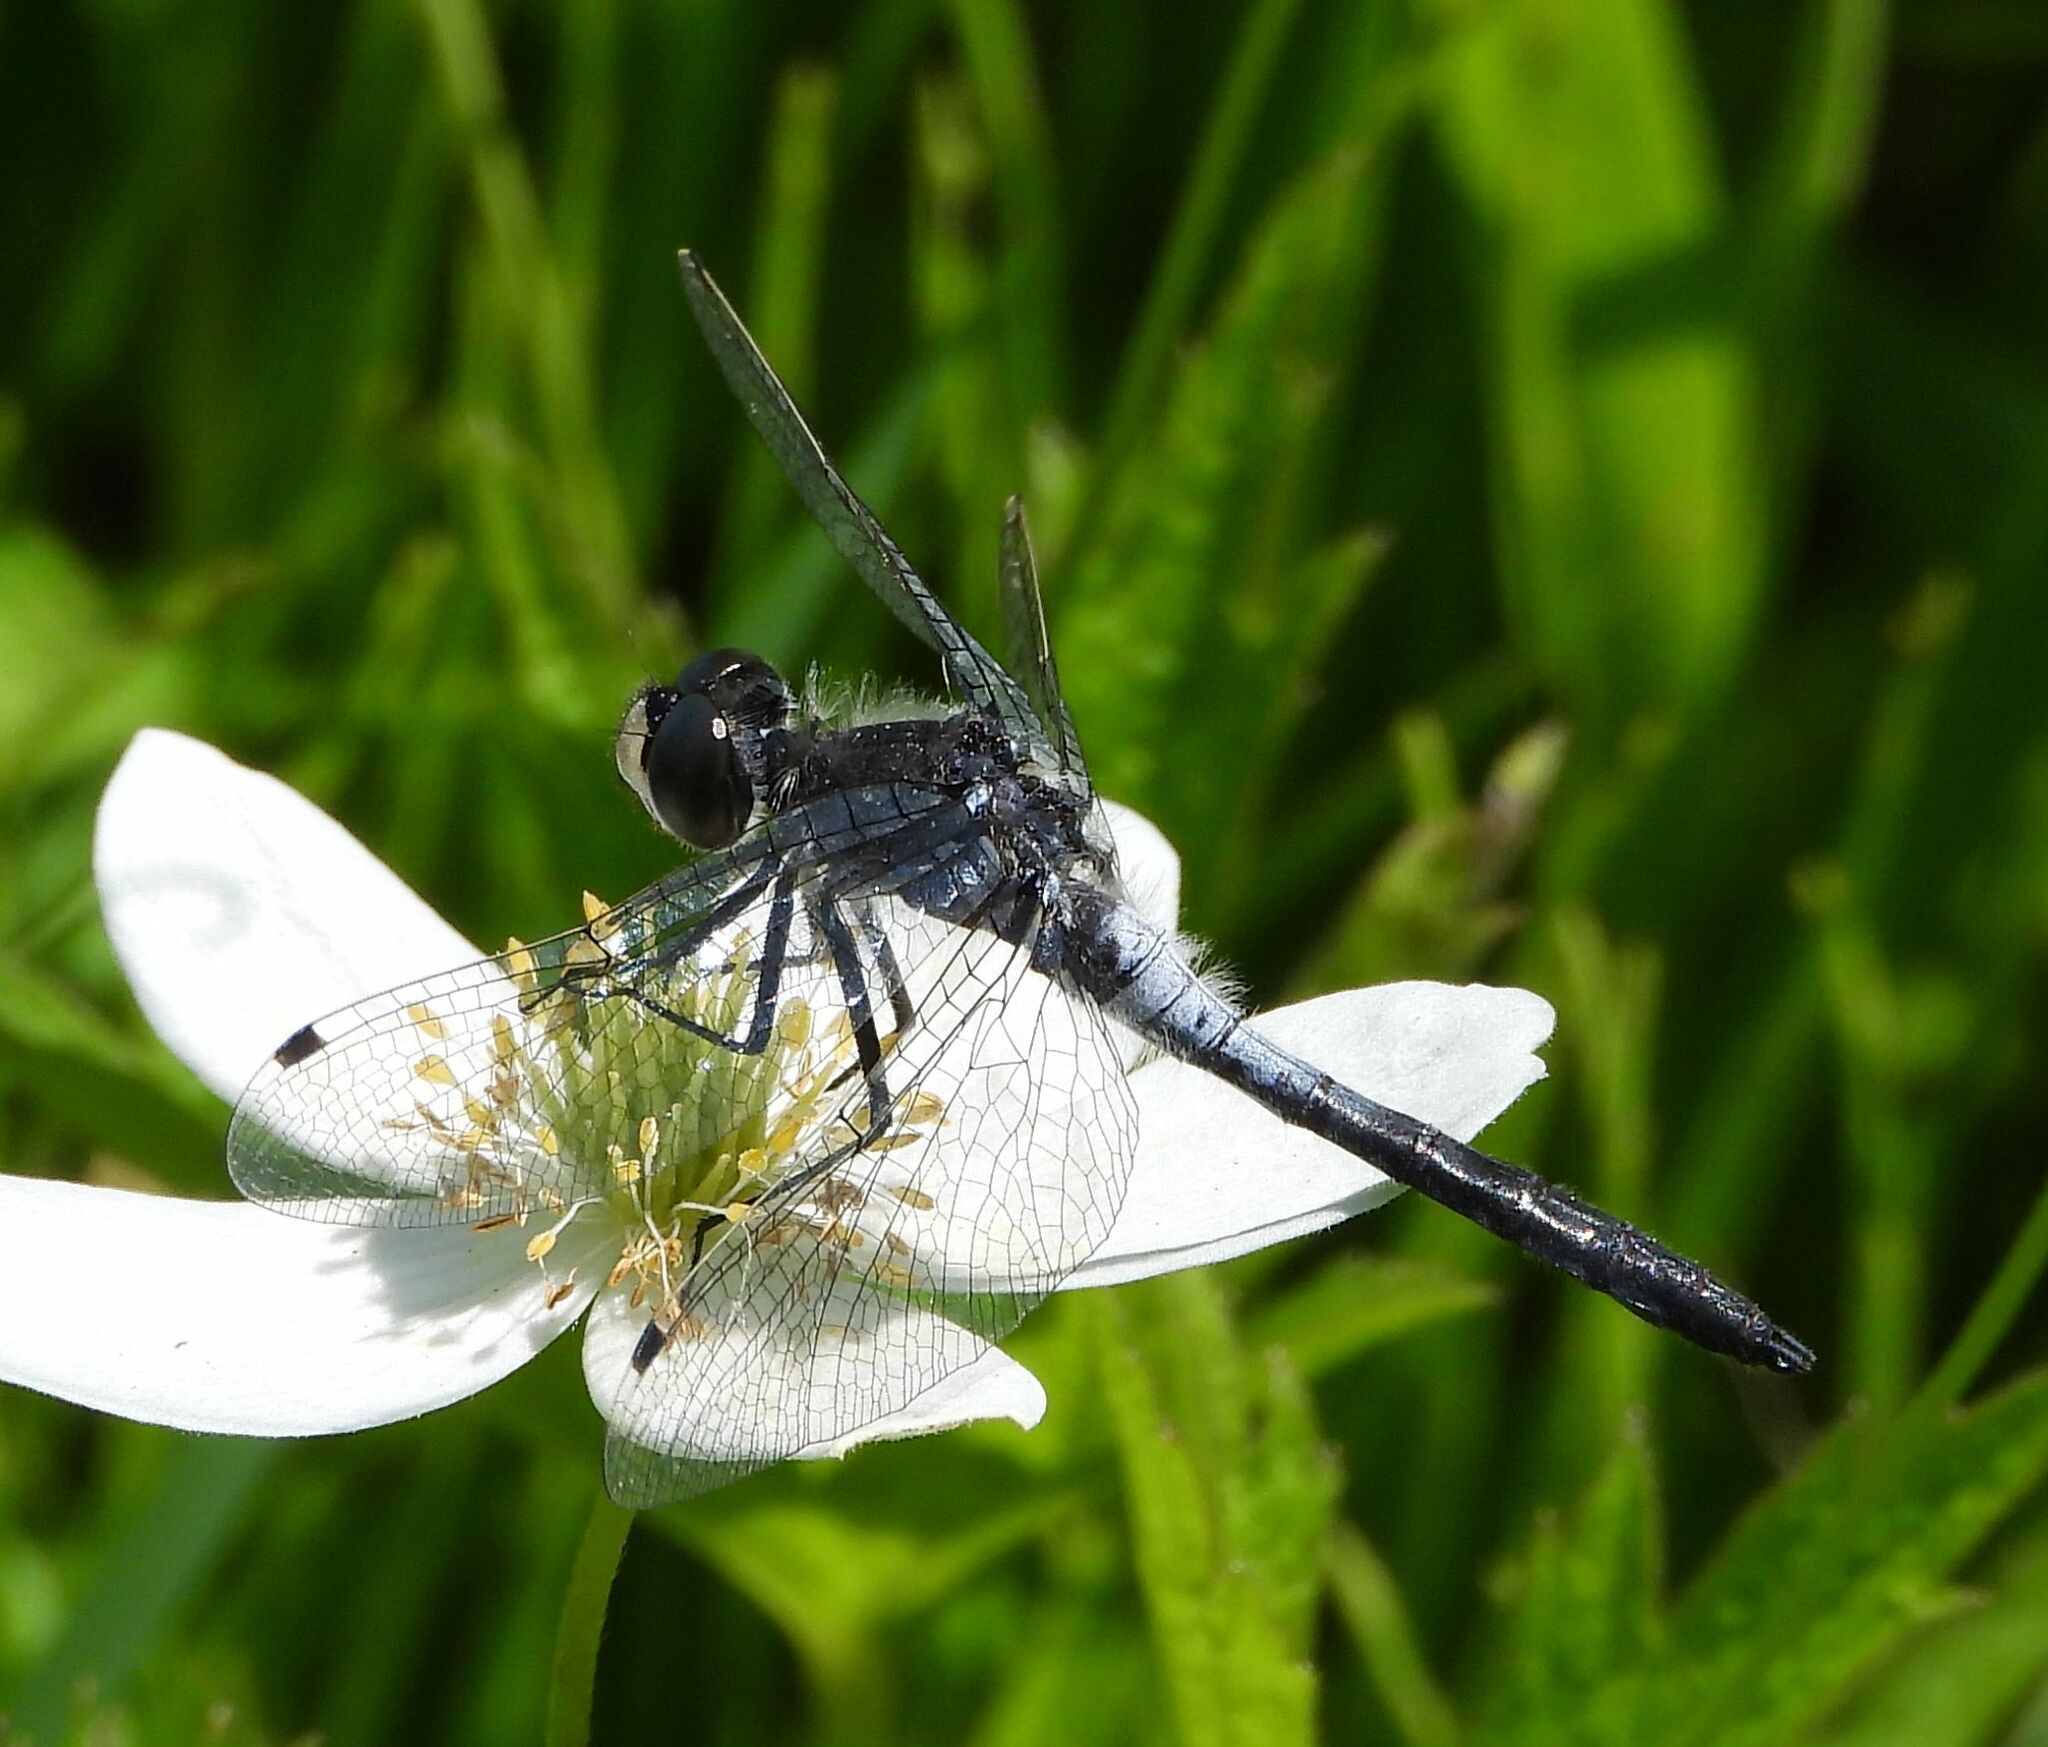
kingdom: Animalia
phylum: Arthropoda
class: Insecta
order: Odonata
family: Libellulidae
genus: Leucorrhinia
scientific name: Leucorrhinia frigida
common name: Frosted whiteface
